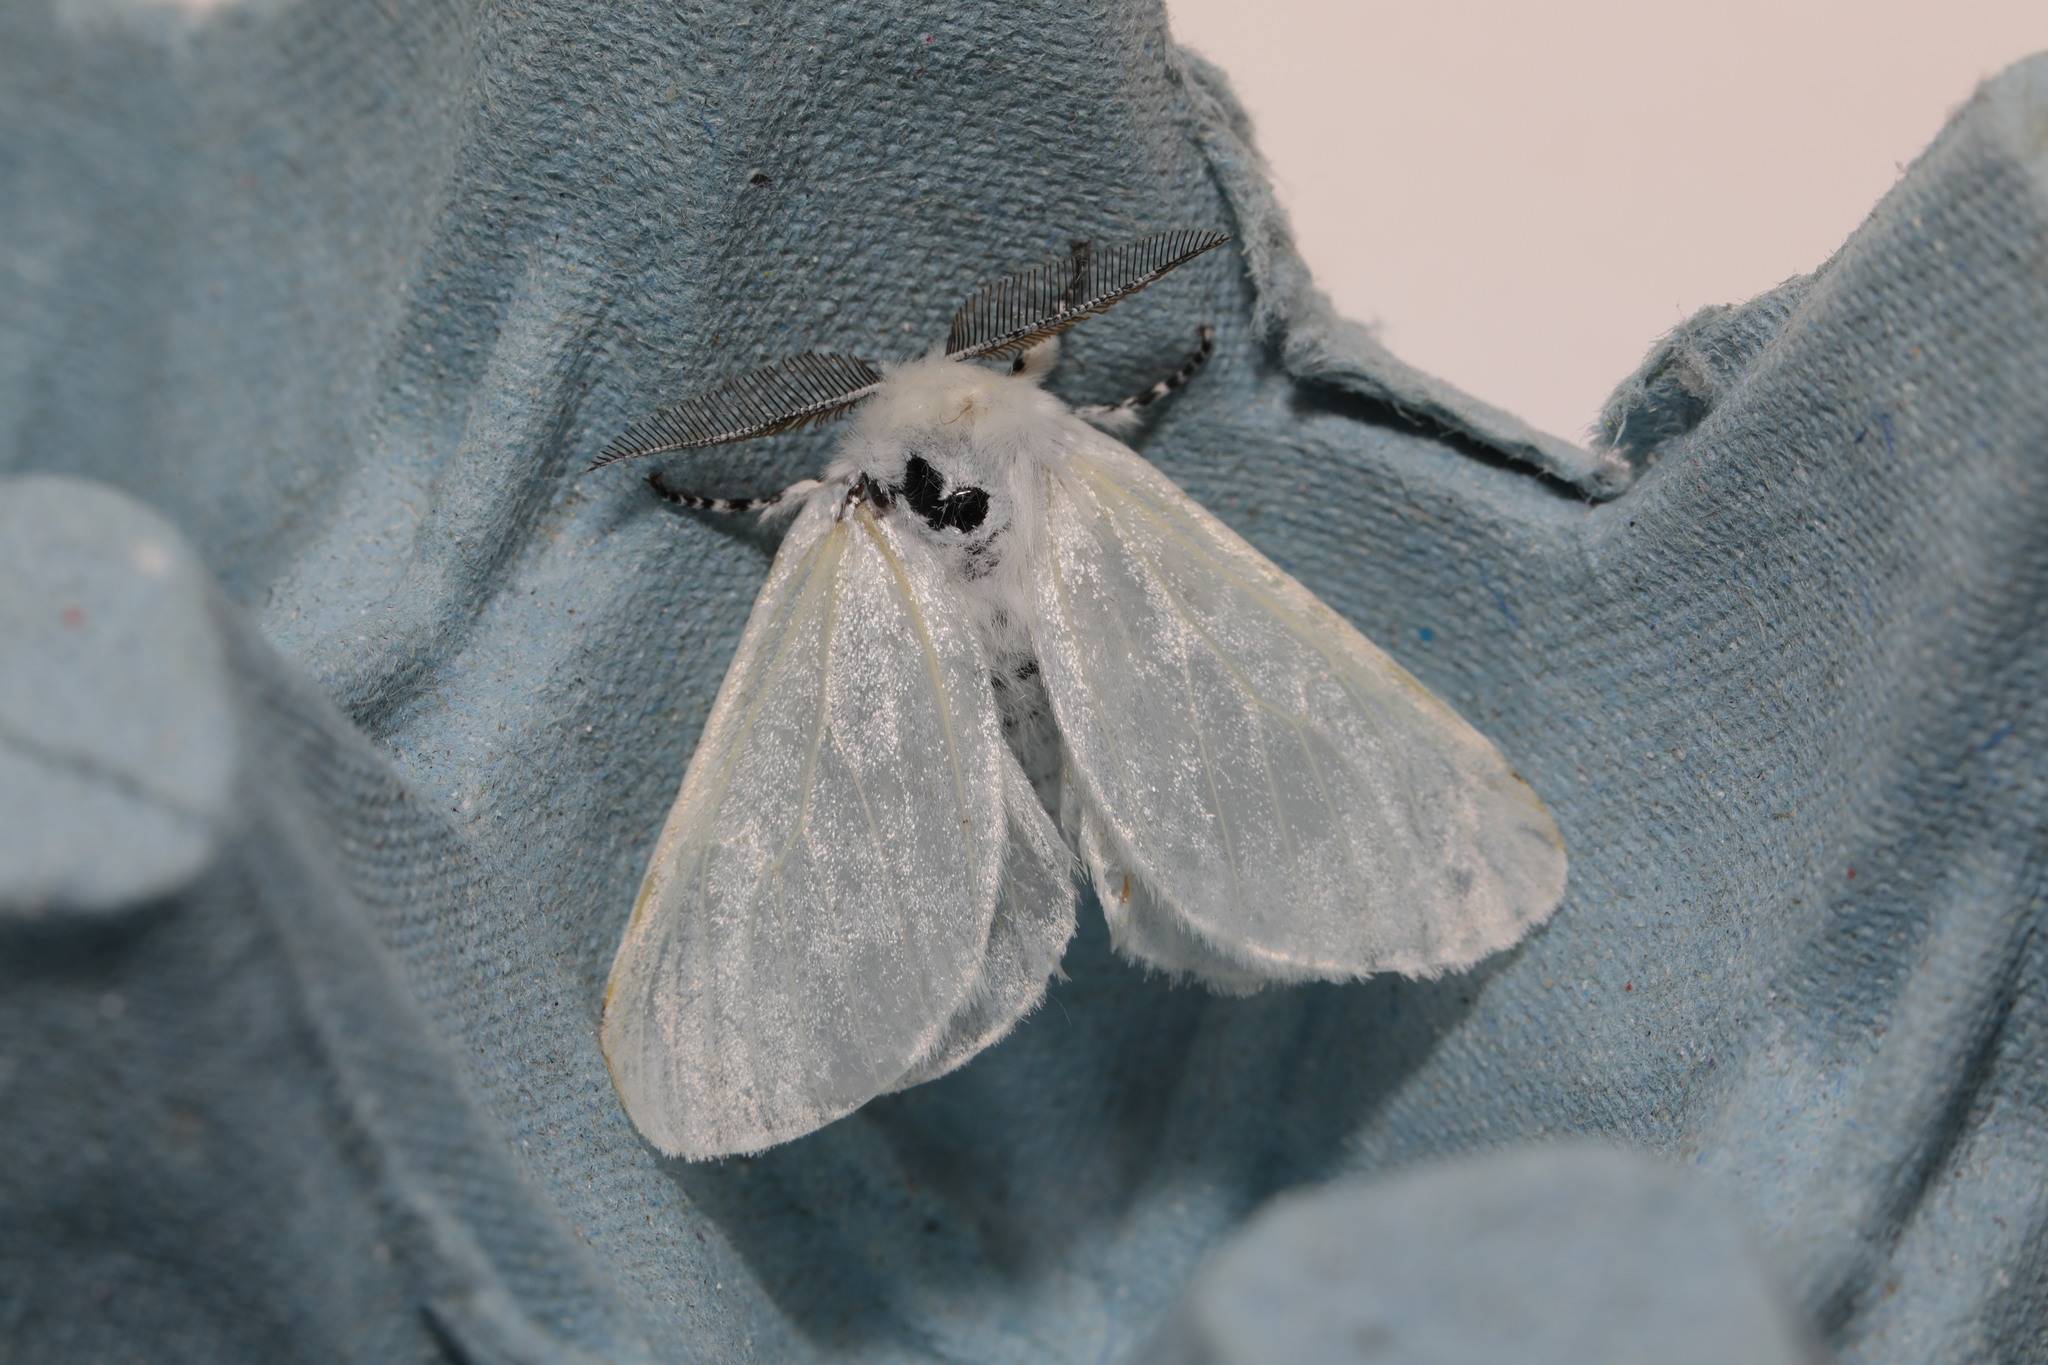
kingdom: Animalia
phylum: Arthropoda
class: Insecta
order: Lepidoptera
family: Erebidae
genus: Leucoma
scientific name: Leucoma salicis
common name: White satin moth
